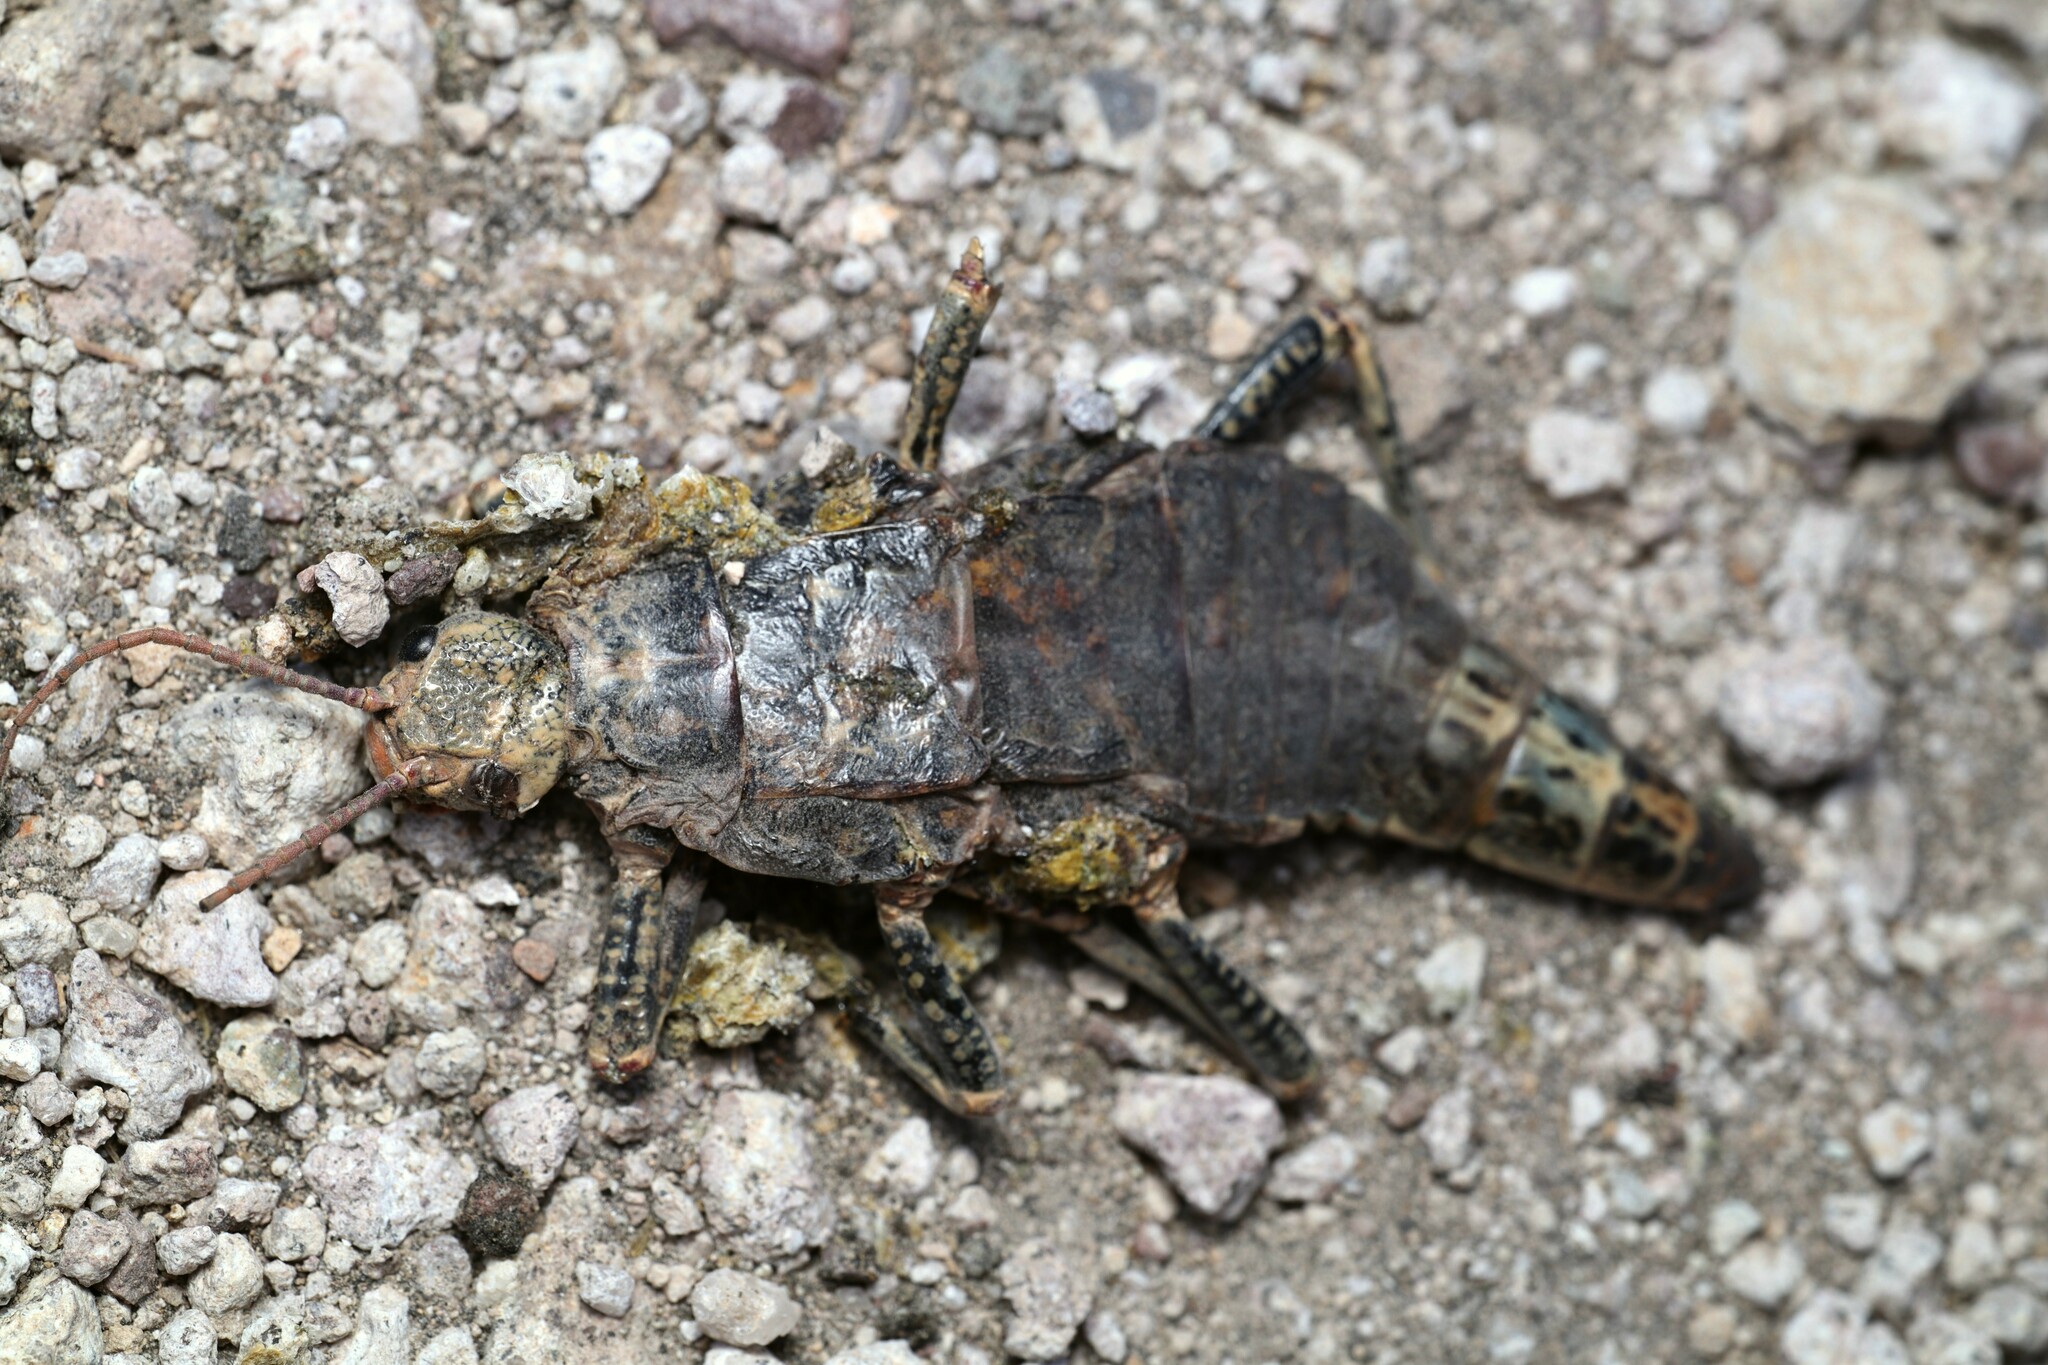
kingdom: Animalia
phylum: Arthropoda
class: Insecta
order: Phasmida
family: Agathemeridae
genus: Agathemera
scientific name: Agathemera mesoauriculae
